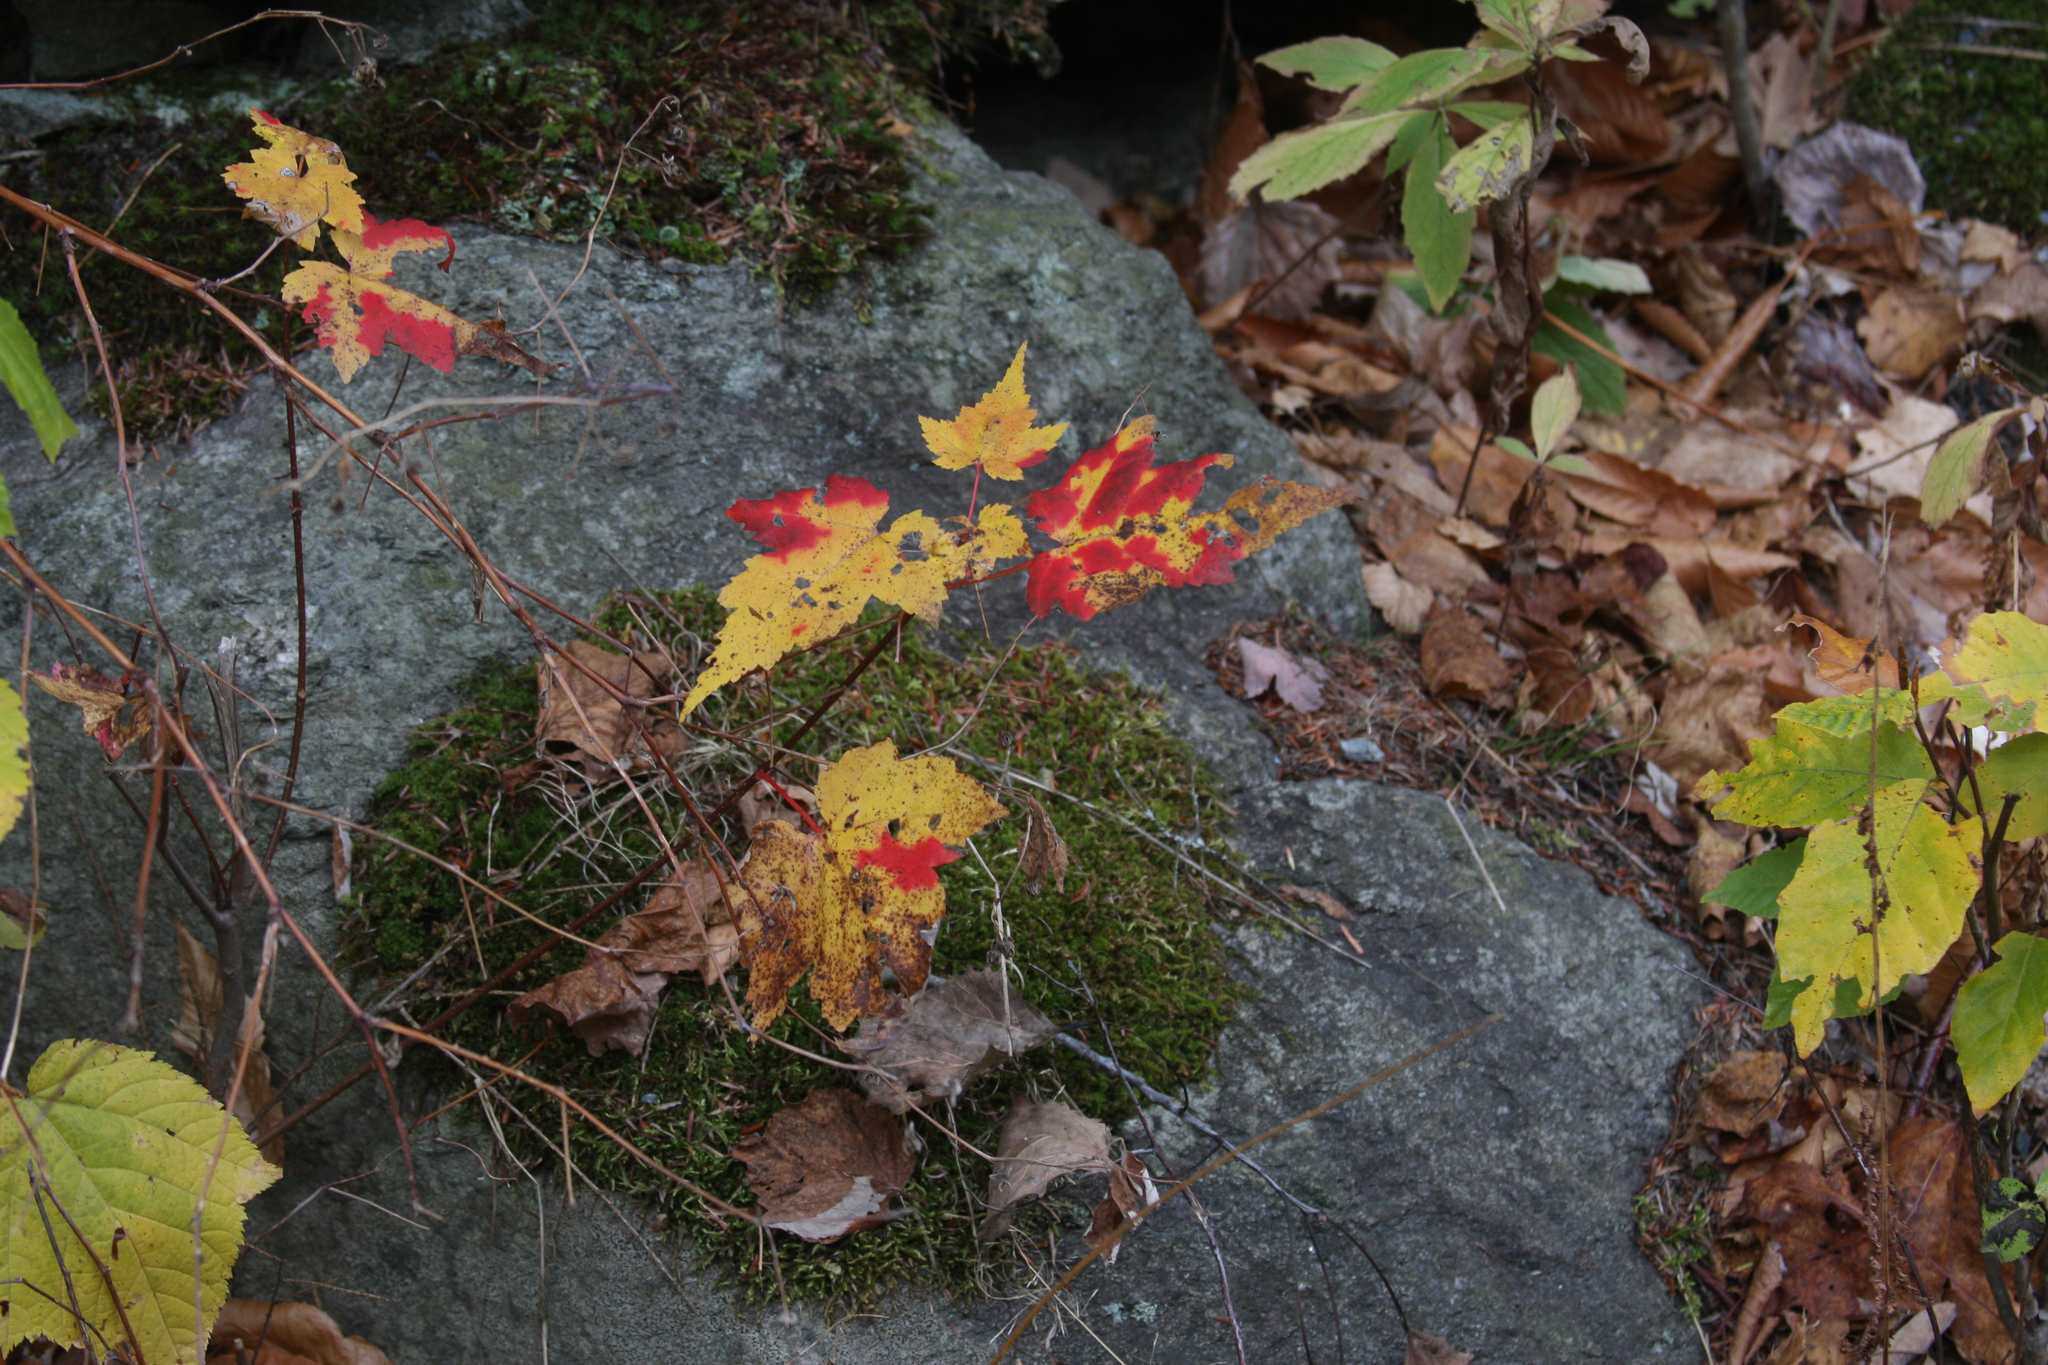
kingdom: Plantae
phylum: Tracheophyta
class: Magnoliopsida
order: Sapindales
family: Sapindaceae
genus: Acer
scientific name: Acer rubrum
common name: Red maple
